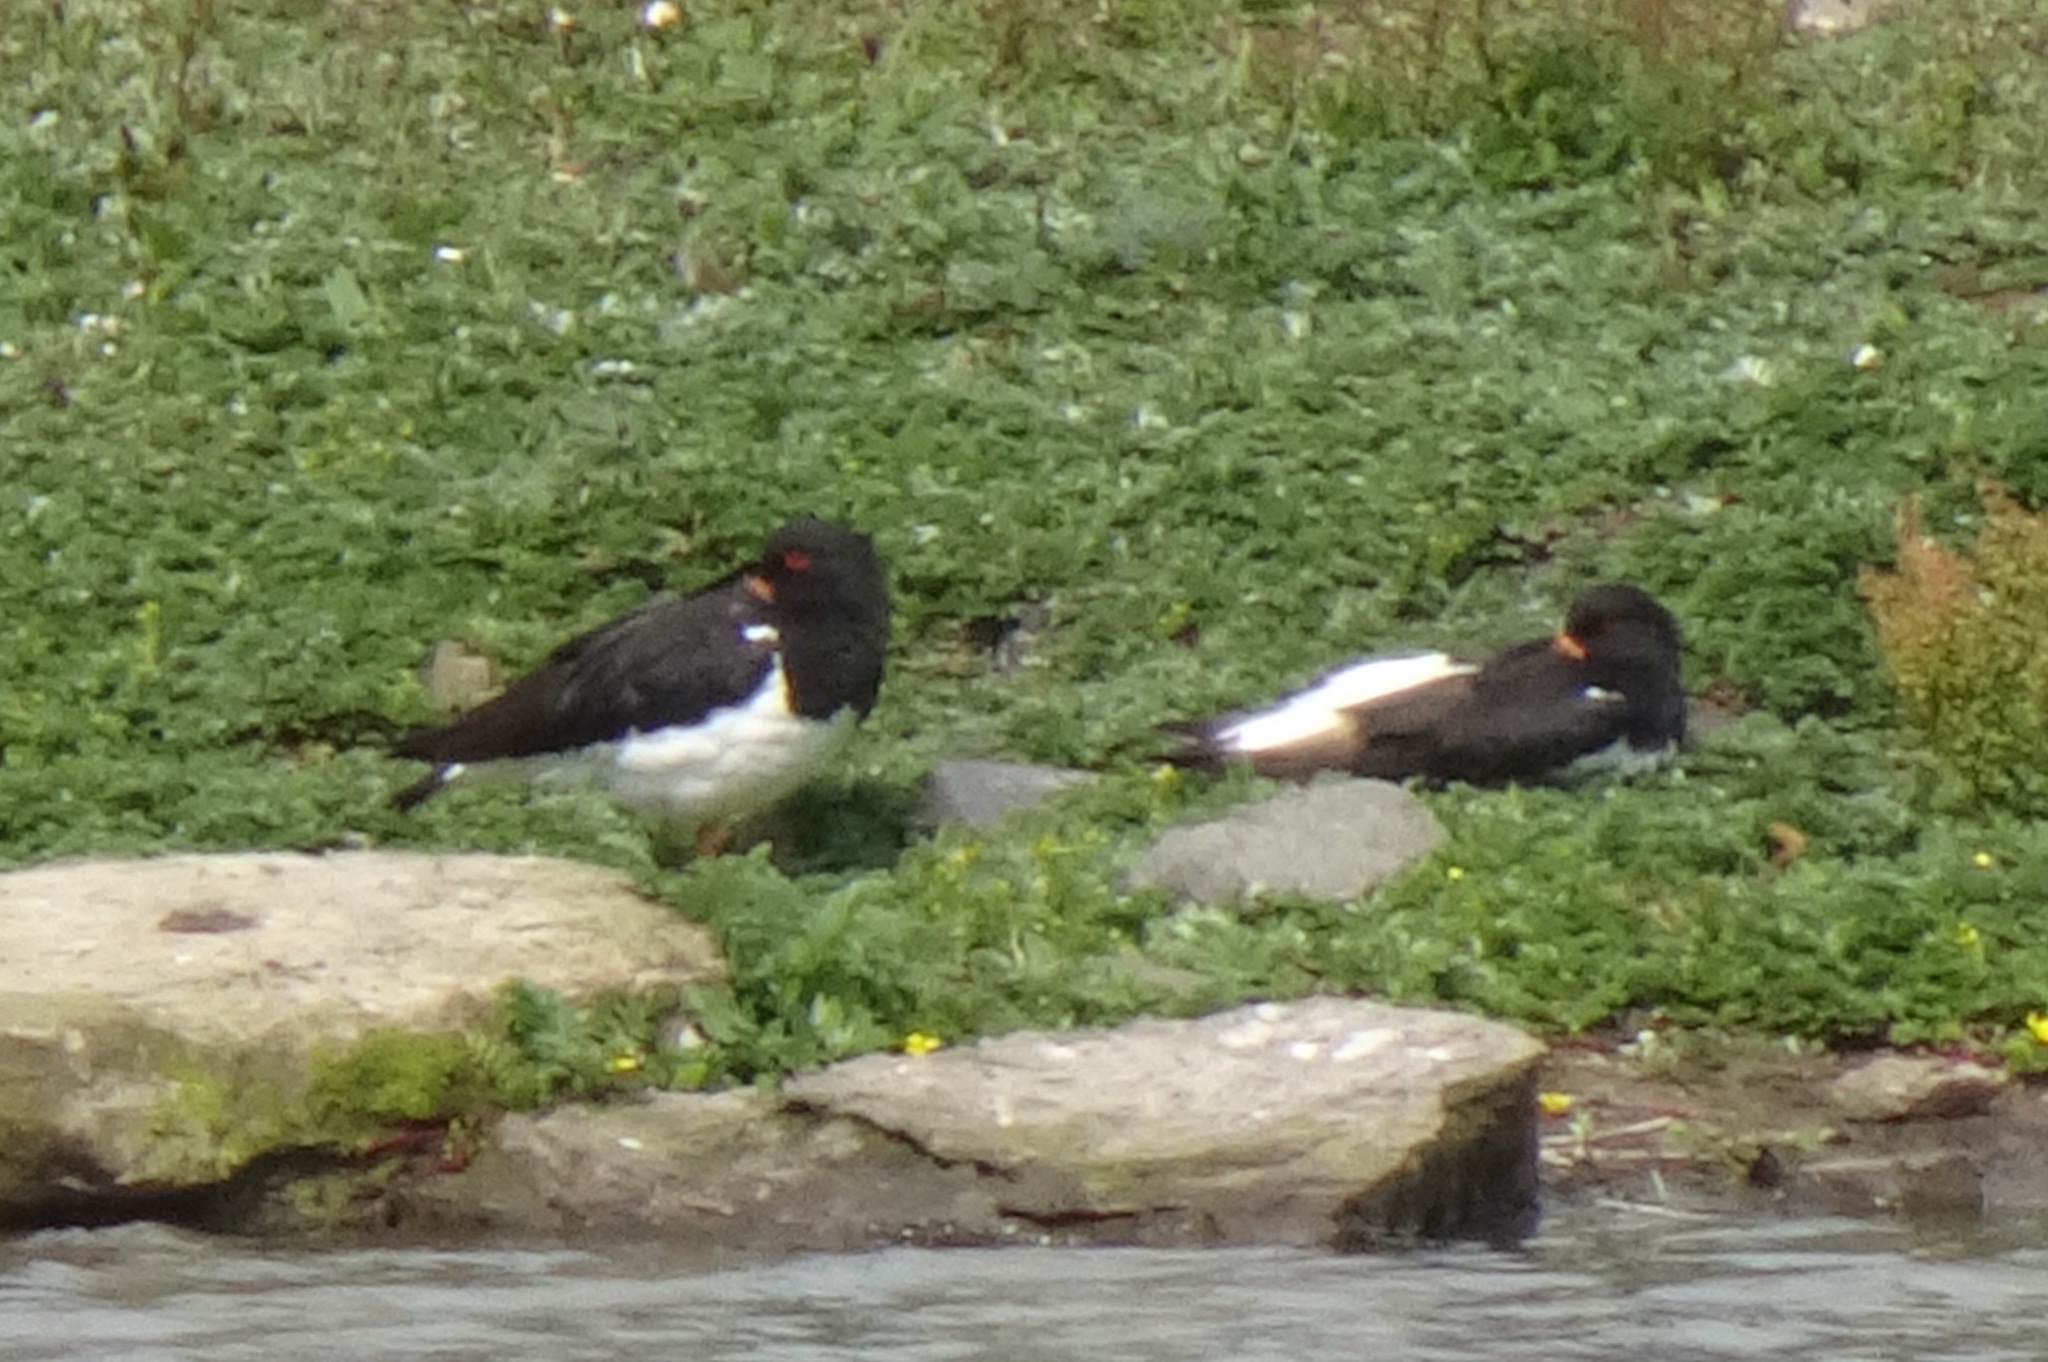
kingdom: Animalia
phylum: Chordata
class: Aves
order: Charadriiformes
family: Haematopodidae
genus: Haematopus
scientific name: Haematopus ostralegus
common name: Eurasian oystercatcher
